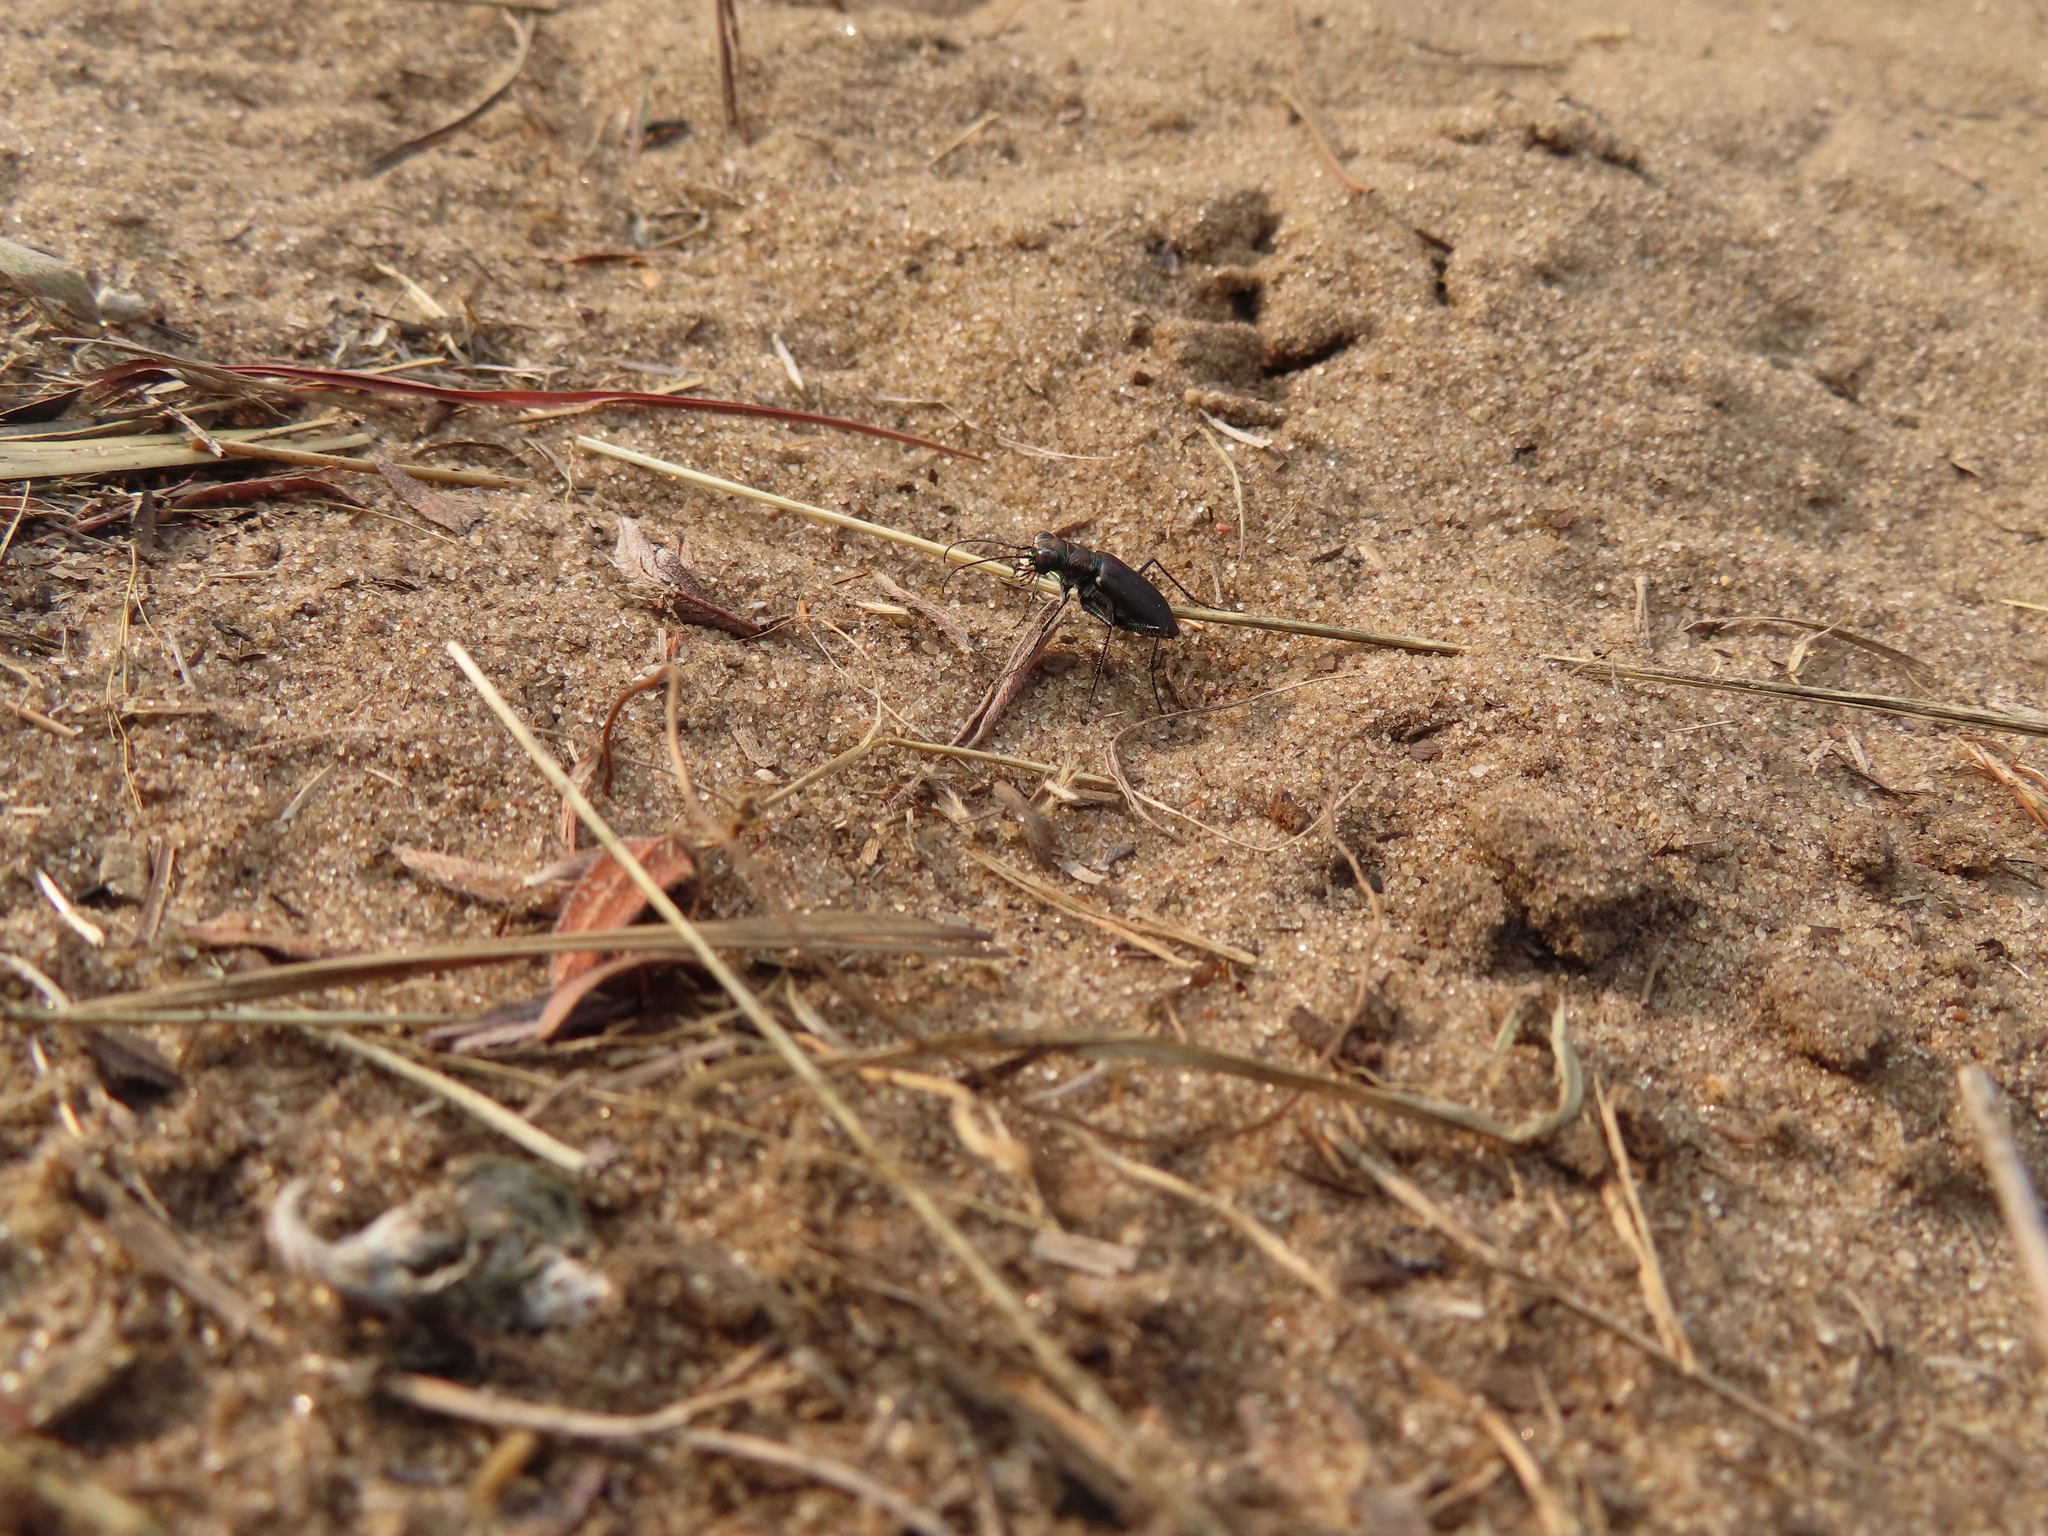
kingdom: Animalia
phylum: Arthropoda
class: Insecta
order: Coleoptera
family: Carabidae
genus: Cicindela
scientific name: Cicindela punctulata
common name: Punctured tiger beetle
